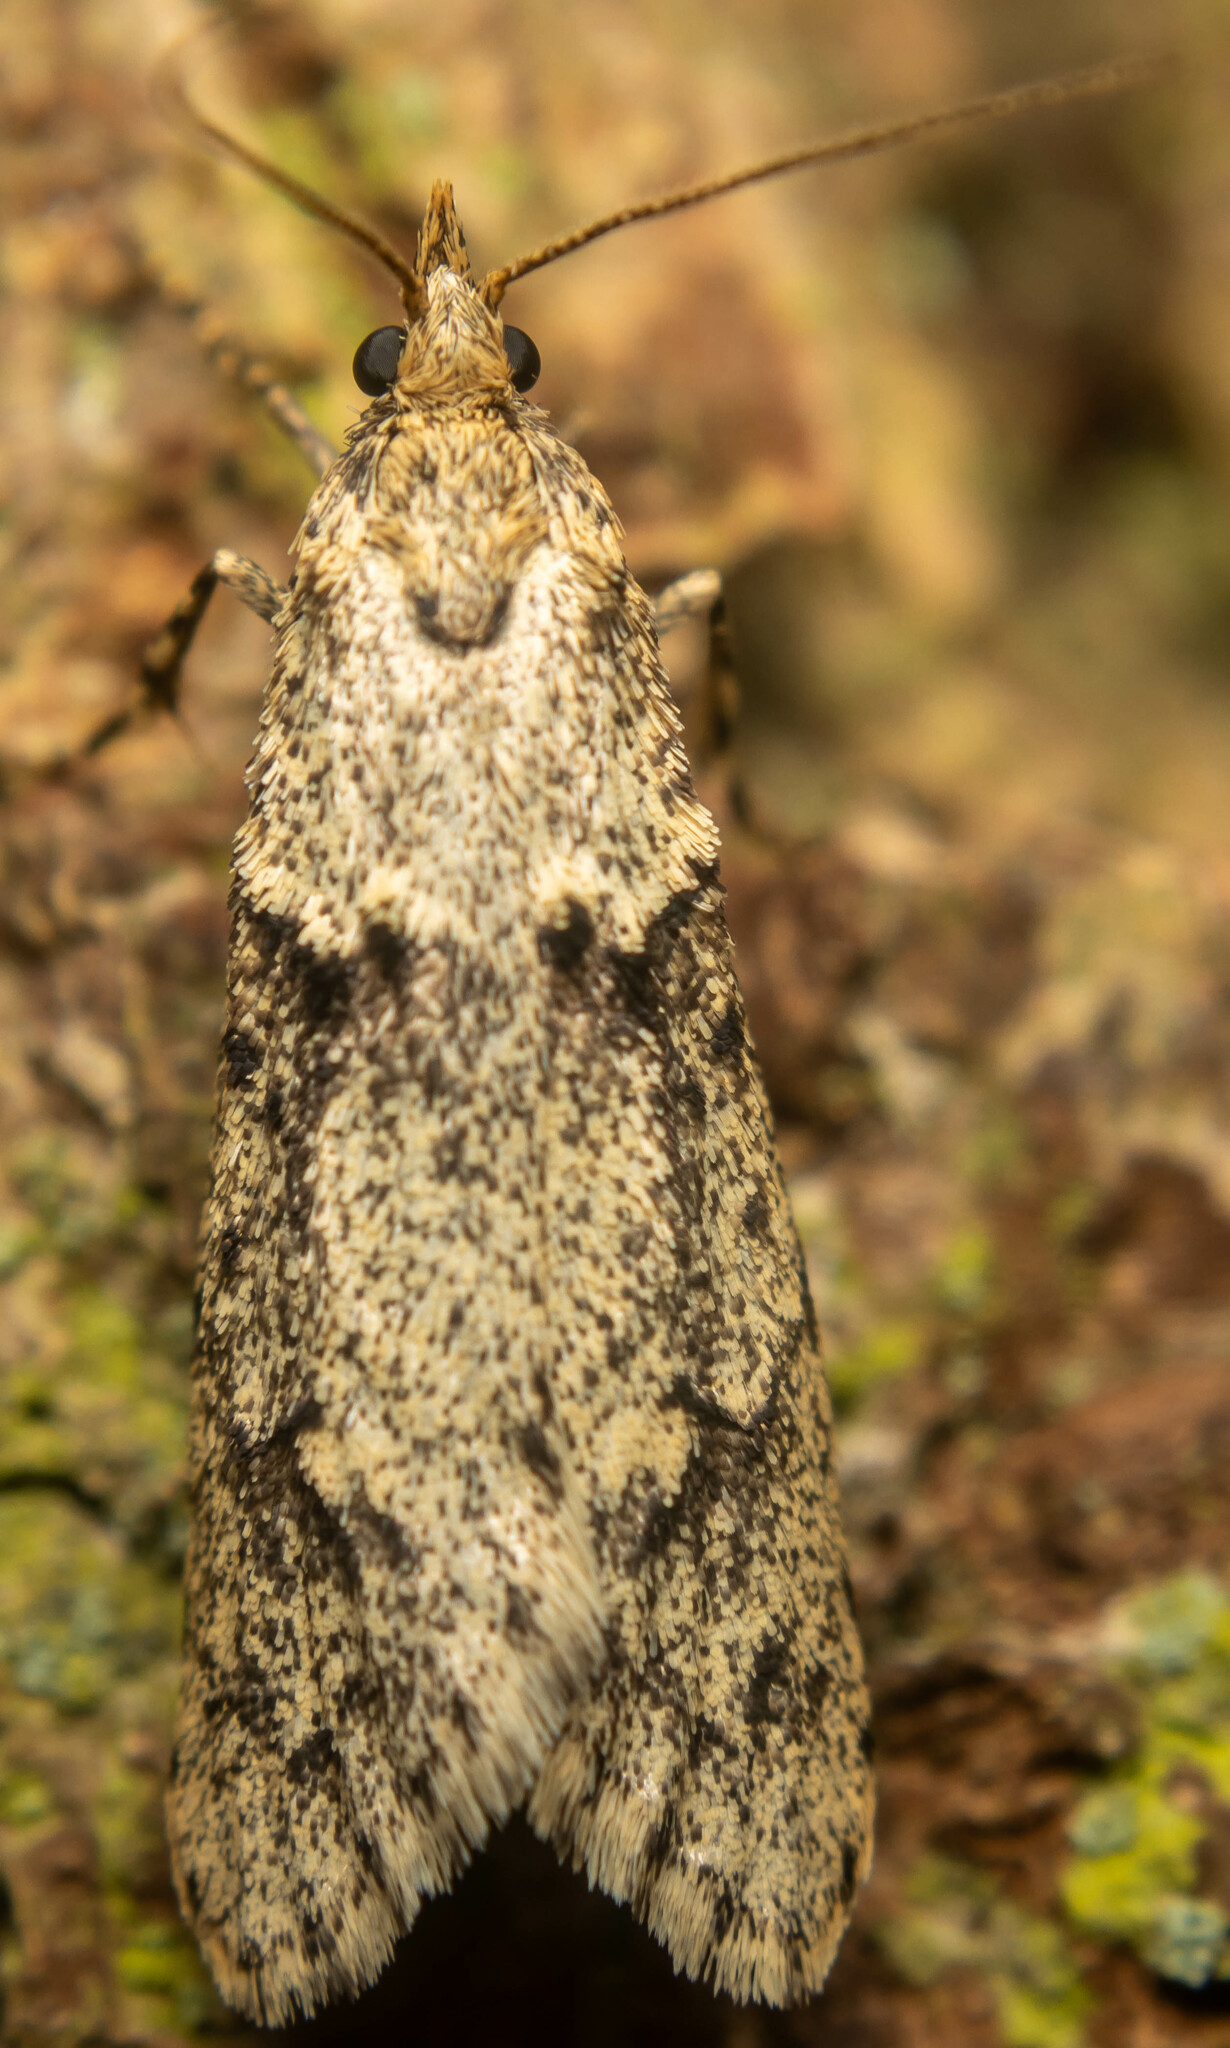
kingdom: Animalia
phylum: Arthropoda
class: Insecta
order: Lepidoptera
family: Lypusidae
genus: Diurnea
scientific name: Diurnea fagella
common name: March tubic
